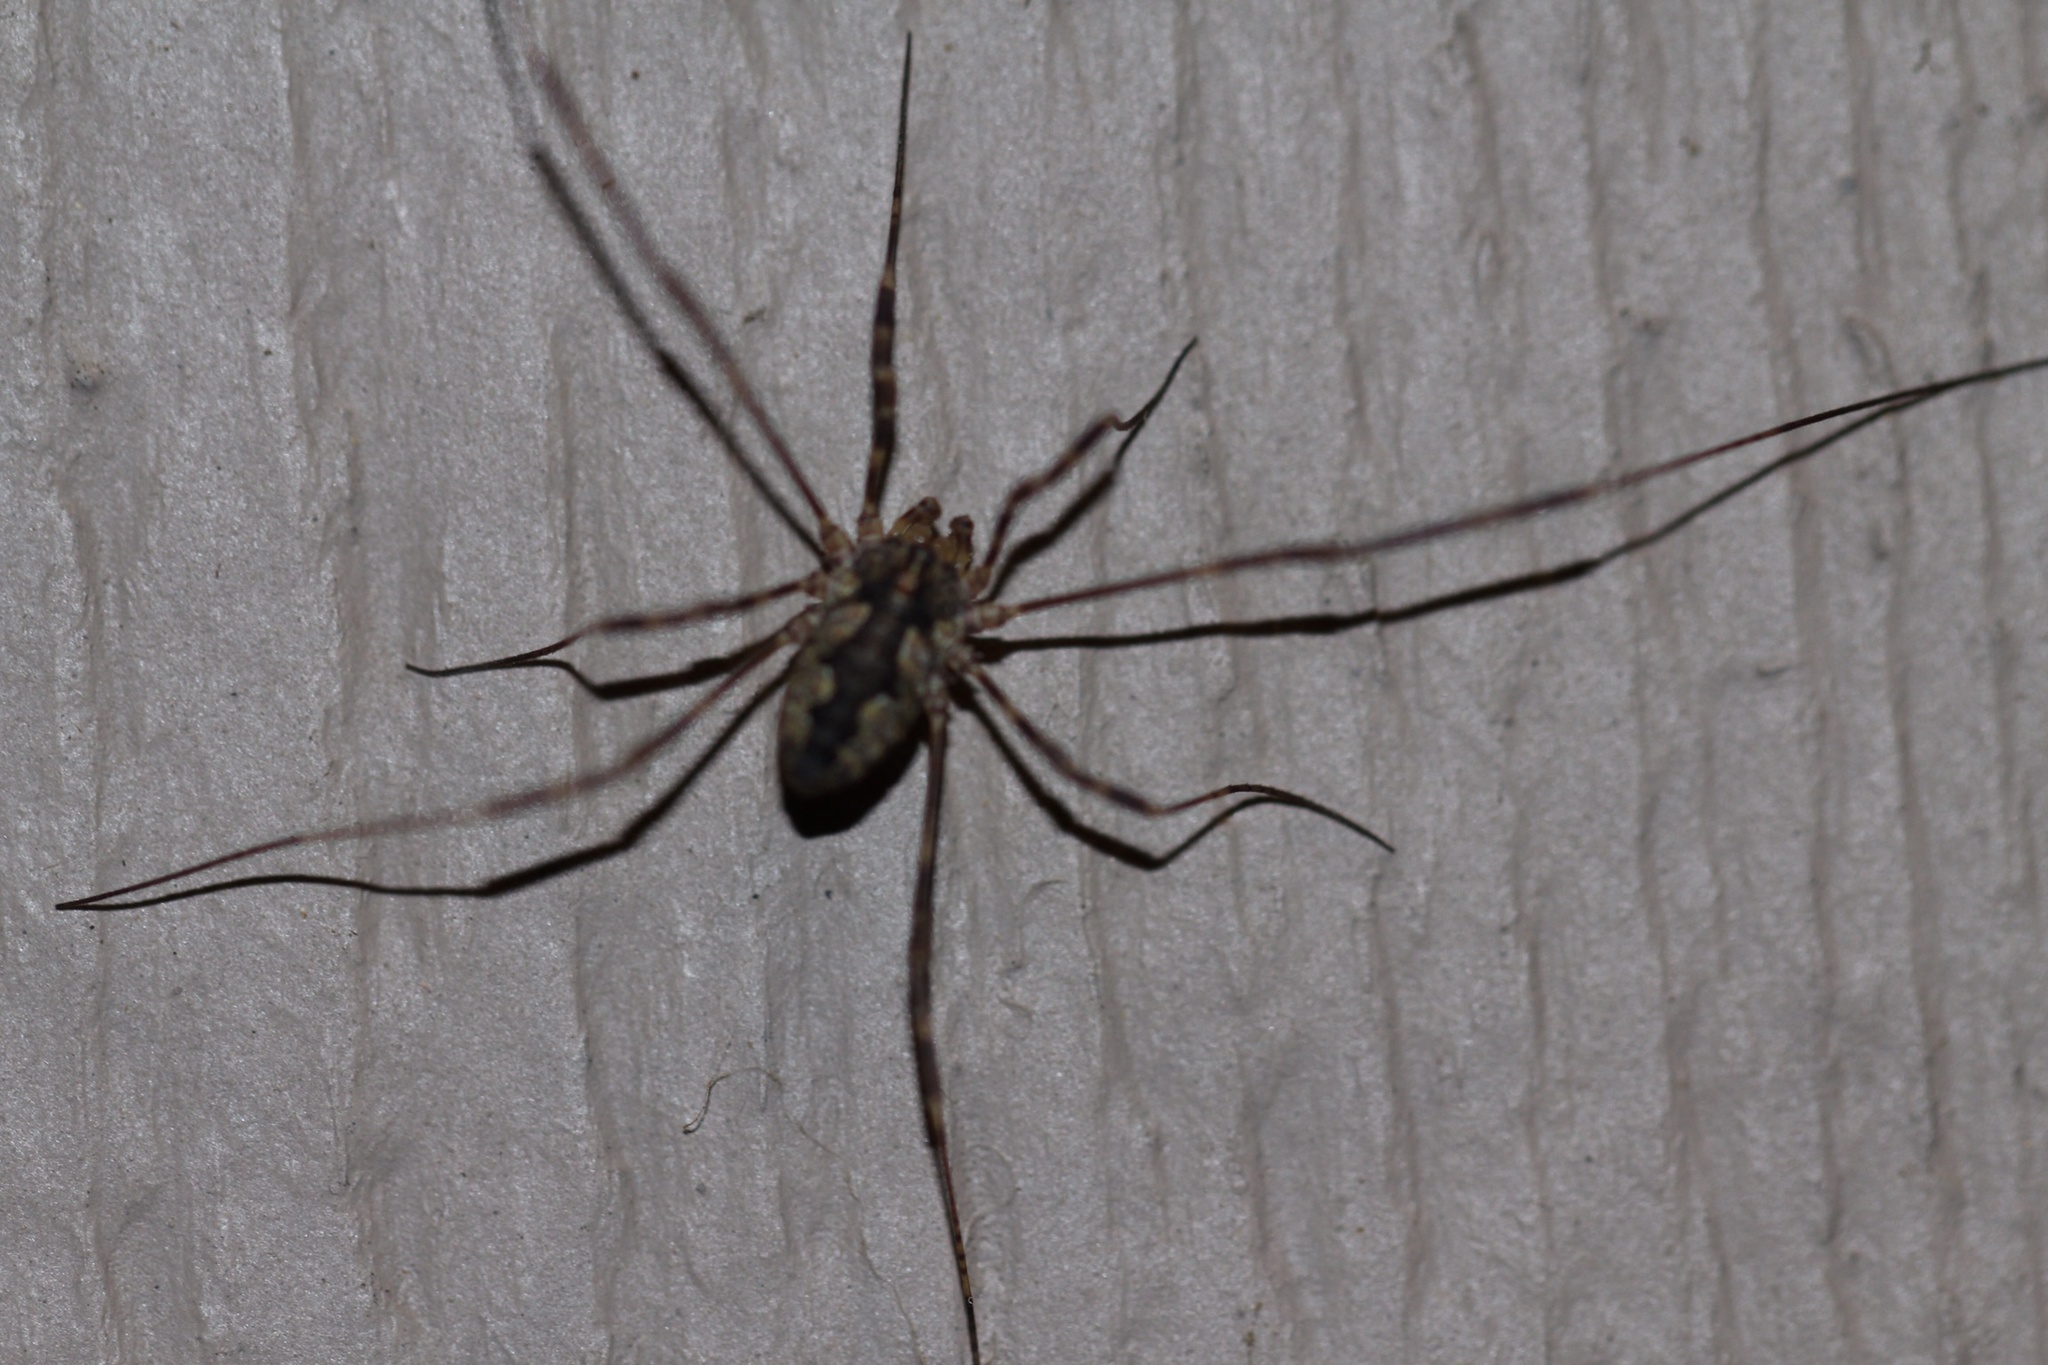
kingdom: Animalia
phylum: Arthropoda
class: Arachnida
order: Opiliones
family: Phalangiidae
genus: Odiellus
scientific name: Odiellus pictus
